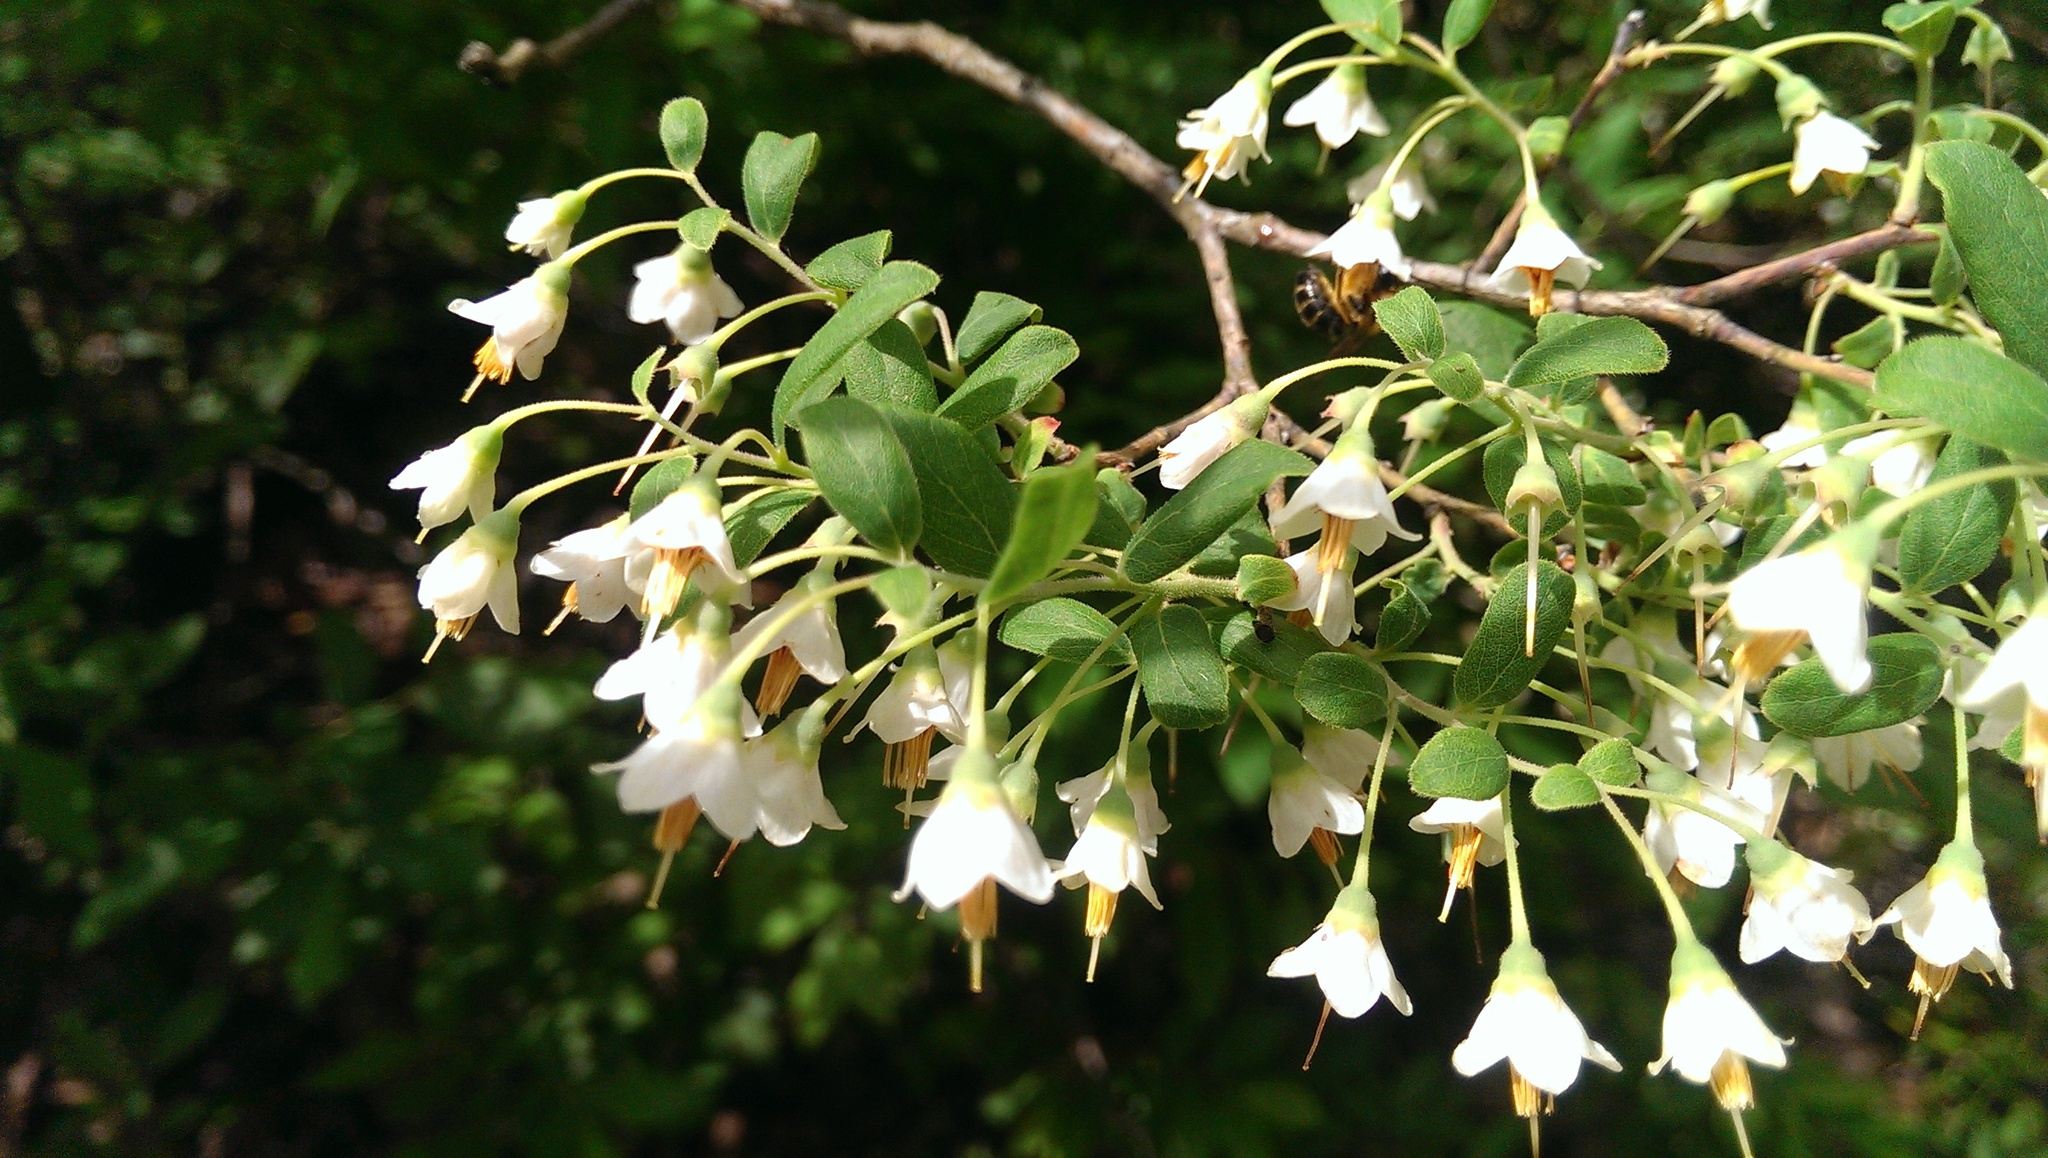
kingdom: Plantae
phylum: Tracheophyta
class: Magnoliopsida
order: Ericales
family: Ericaceae
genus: Vaccinium
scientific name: Vaccinium stamineum
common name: Deerberry
